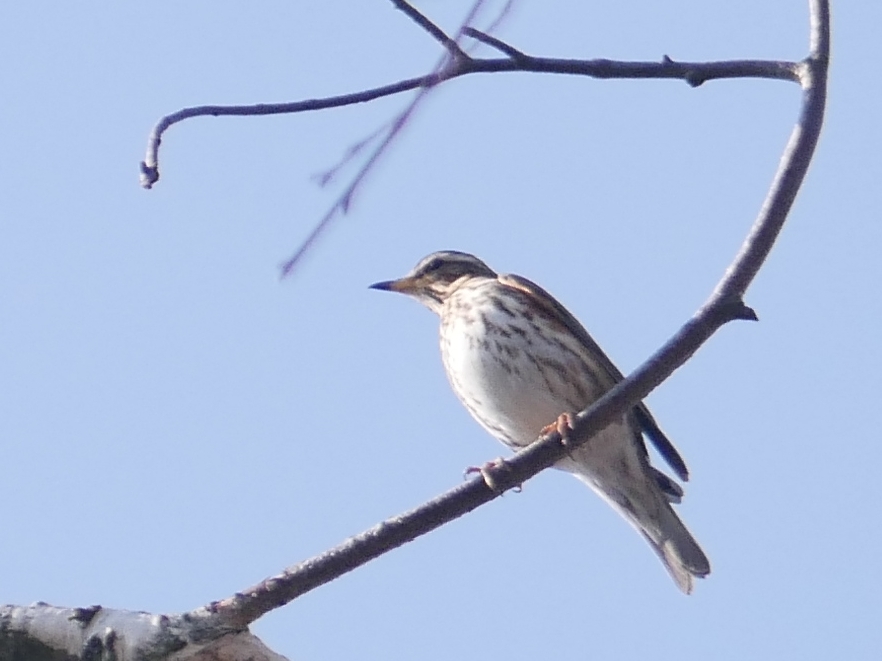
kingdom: Animalia
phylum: Chordata
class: Aves
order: Passeriformes
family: Turdidae
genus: Turdus
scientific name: Turdus iliacus
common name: Redwing
